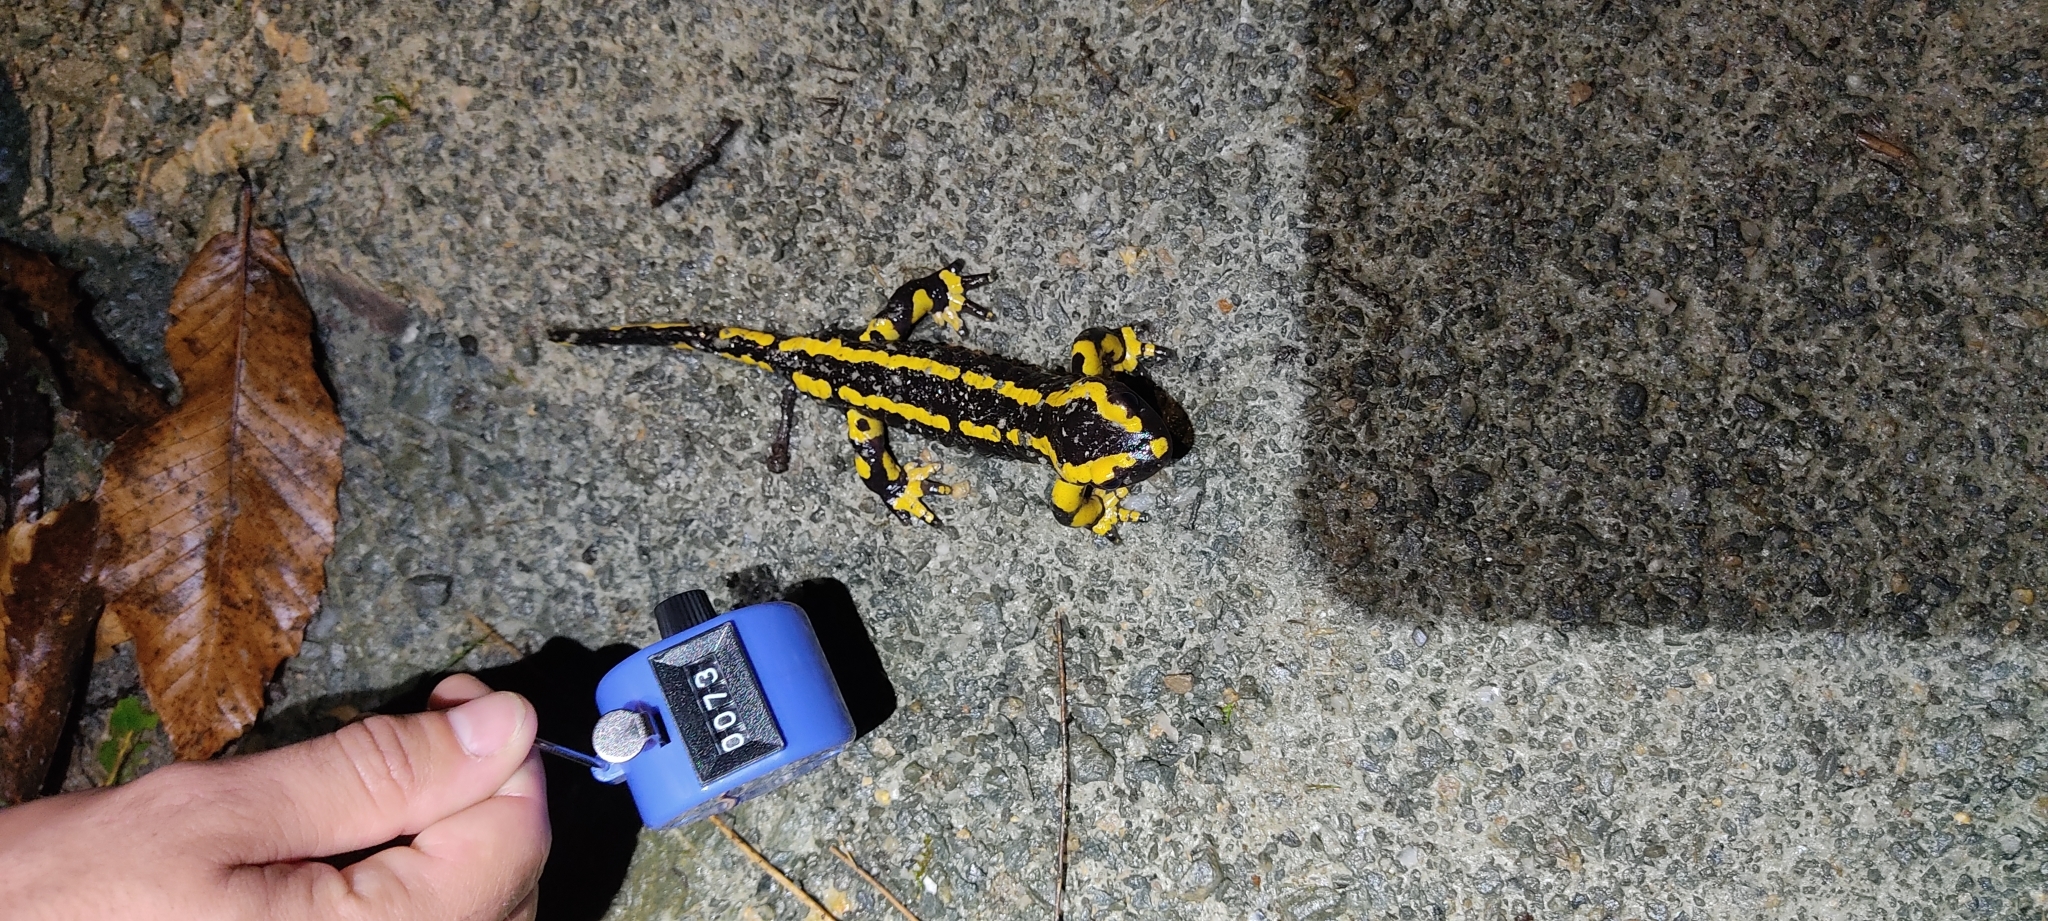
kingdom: Animalia
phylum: Chordata
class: Amphibia
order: Caudata
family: Salamandridae
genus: Salamandra
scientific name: Salamandra salamandra
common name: Fire salamander
